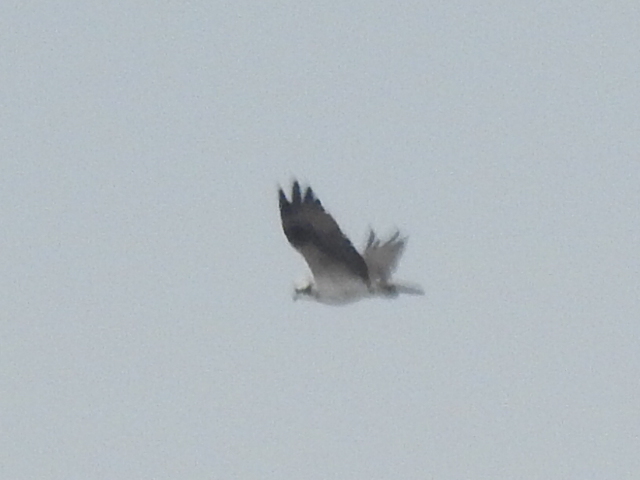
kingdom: Animalia
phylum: Chordata
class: Aves
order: Accipitriformes
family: Pandionidae
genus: Pandion
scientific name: Pandion haliaetus
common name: Osprey
